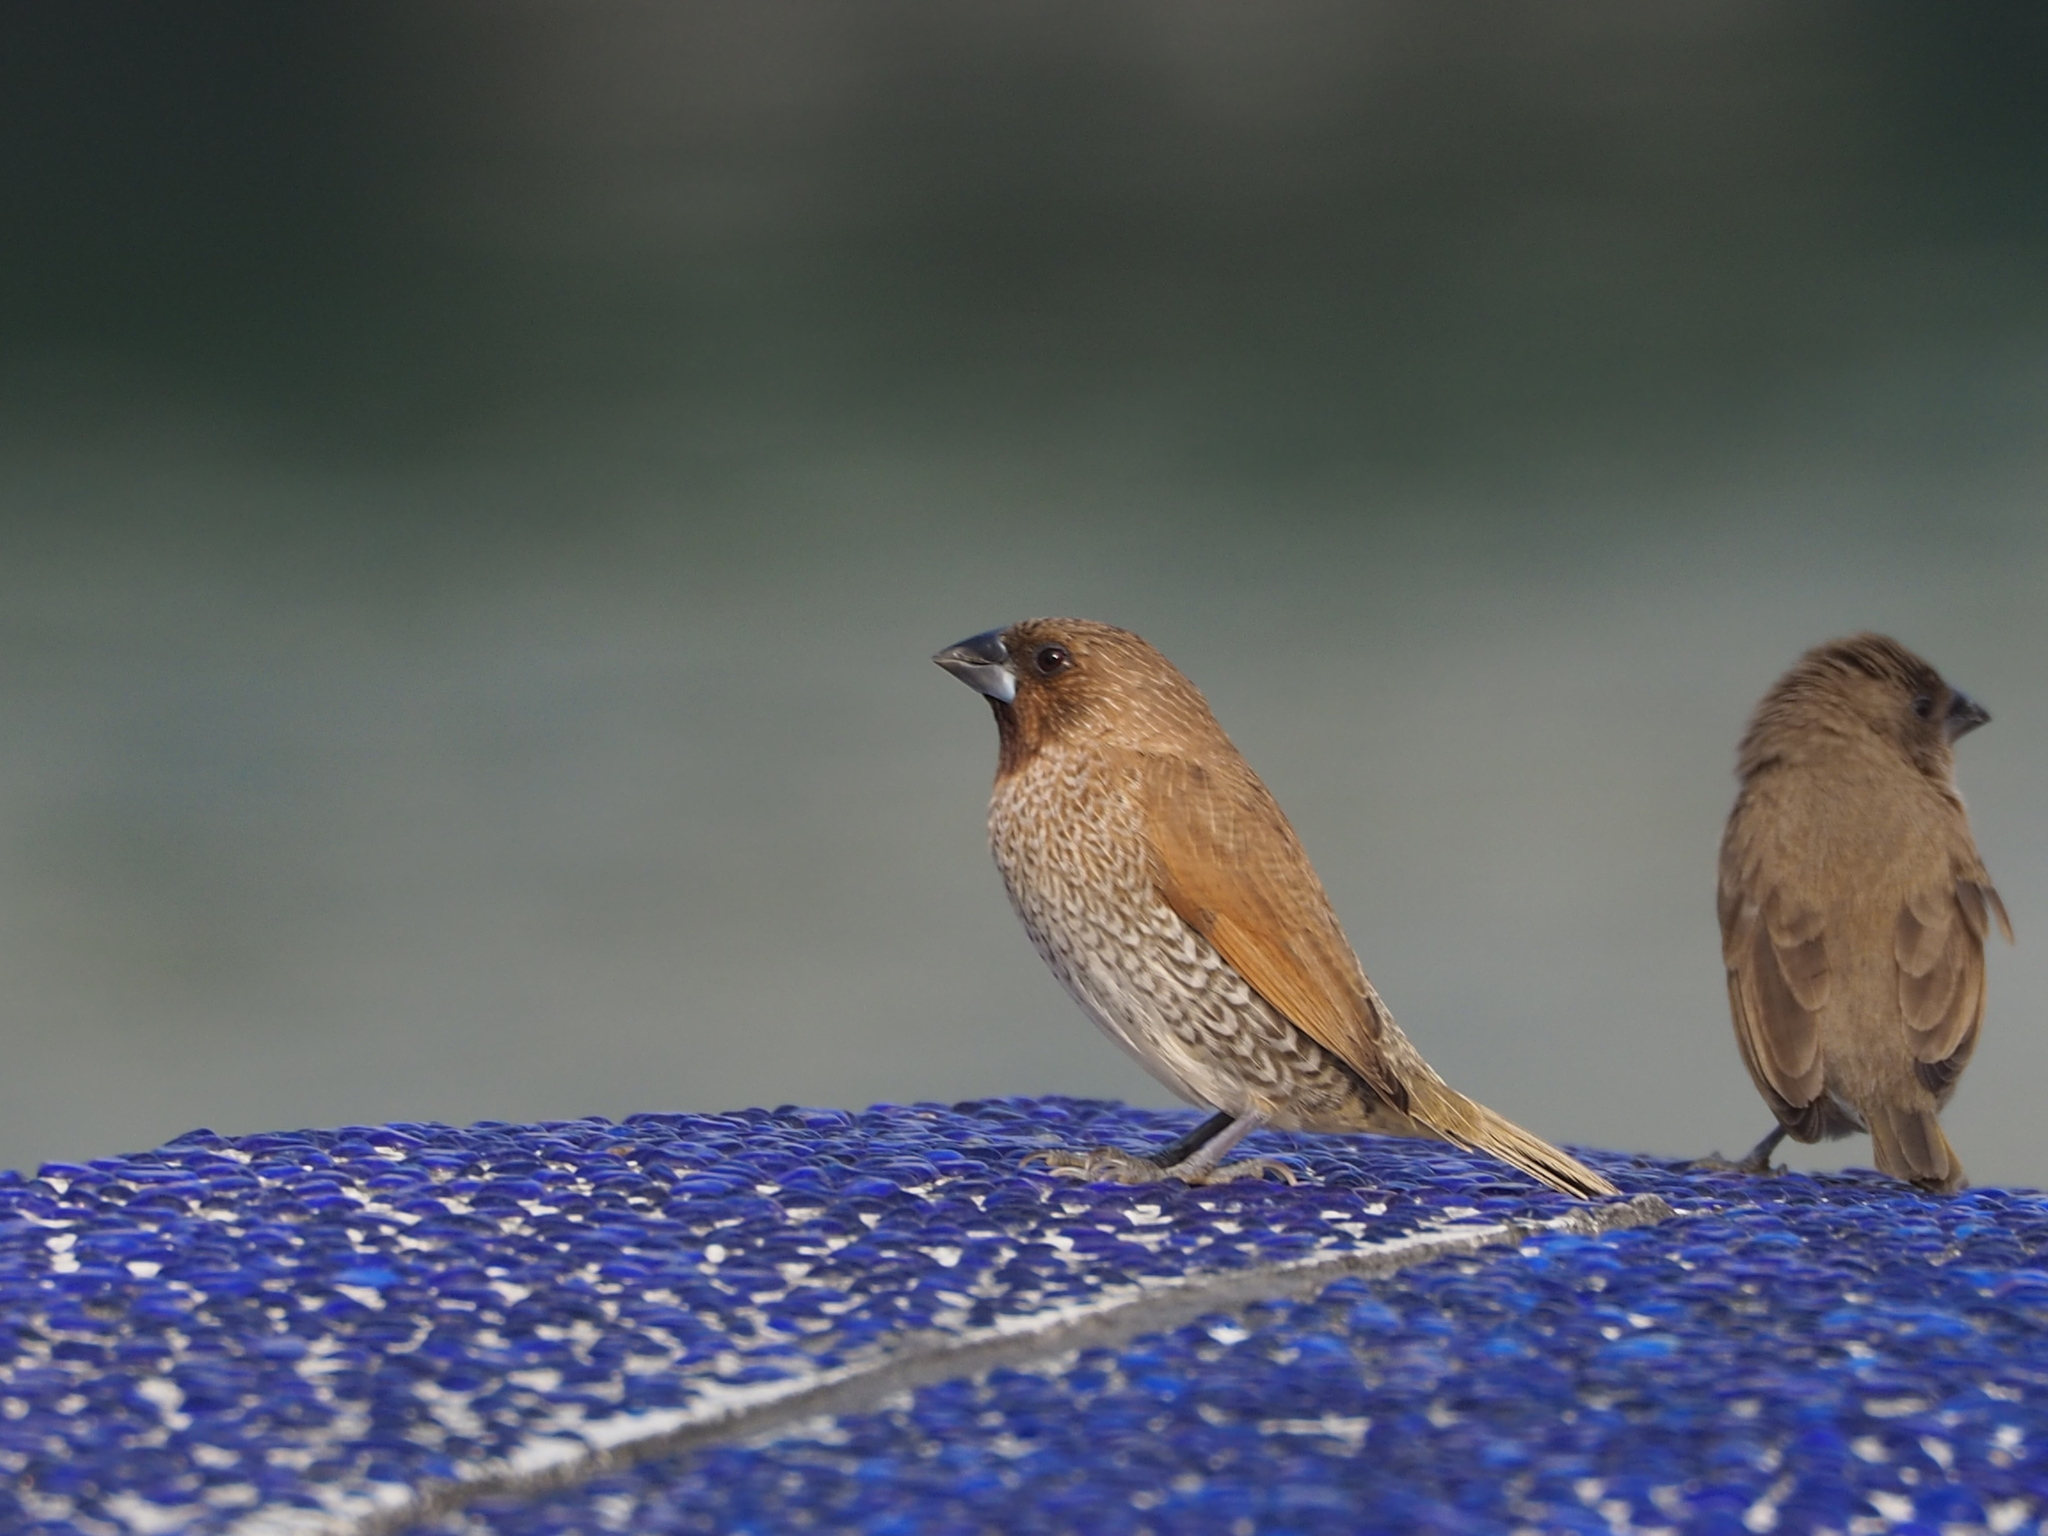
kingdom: Animalia
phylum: Chordata
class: Aves
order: Passeriformes
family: Estrildidae
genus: Lonchura
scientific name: Lonchura punctulata
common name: Scaly-breasted munia
